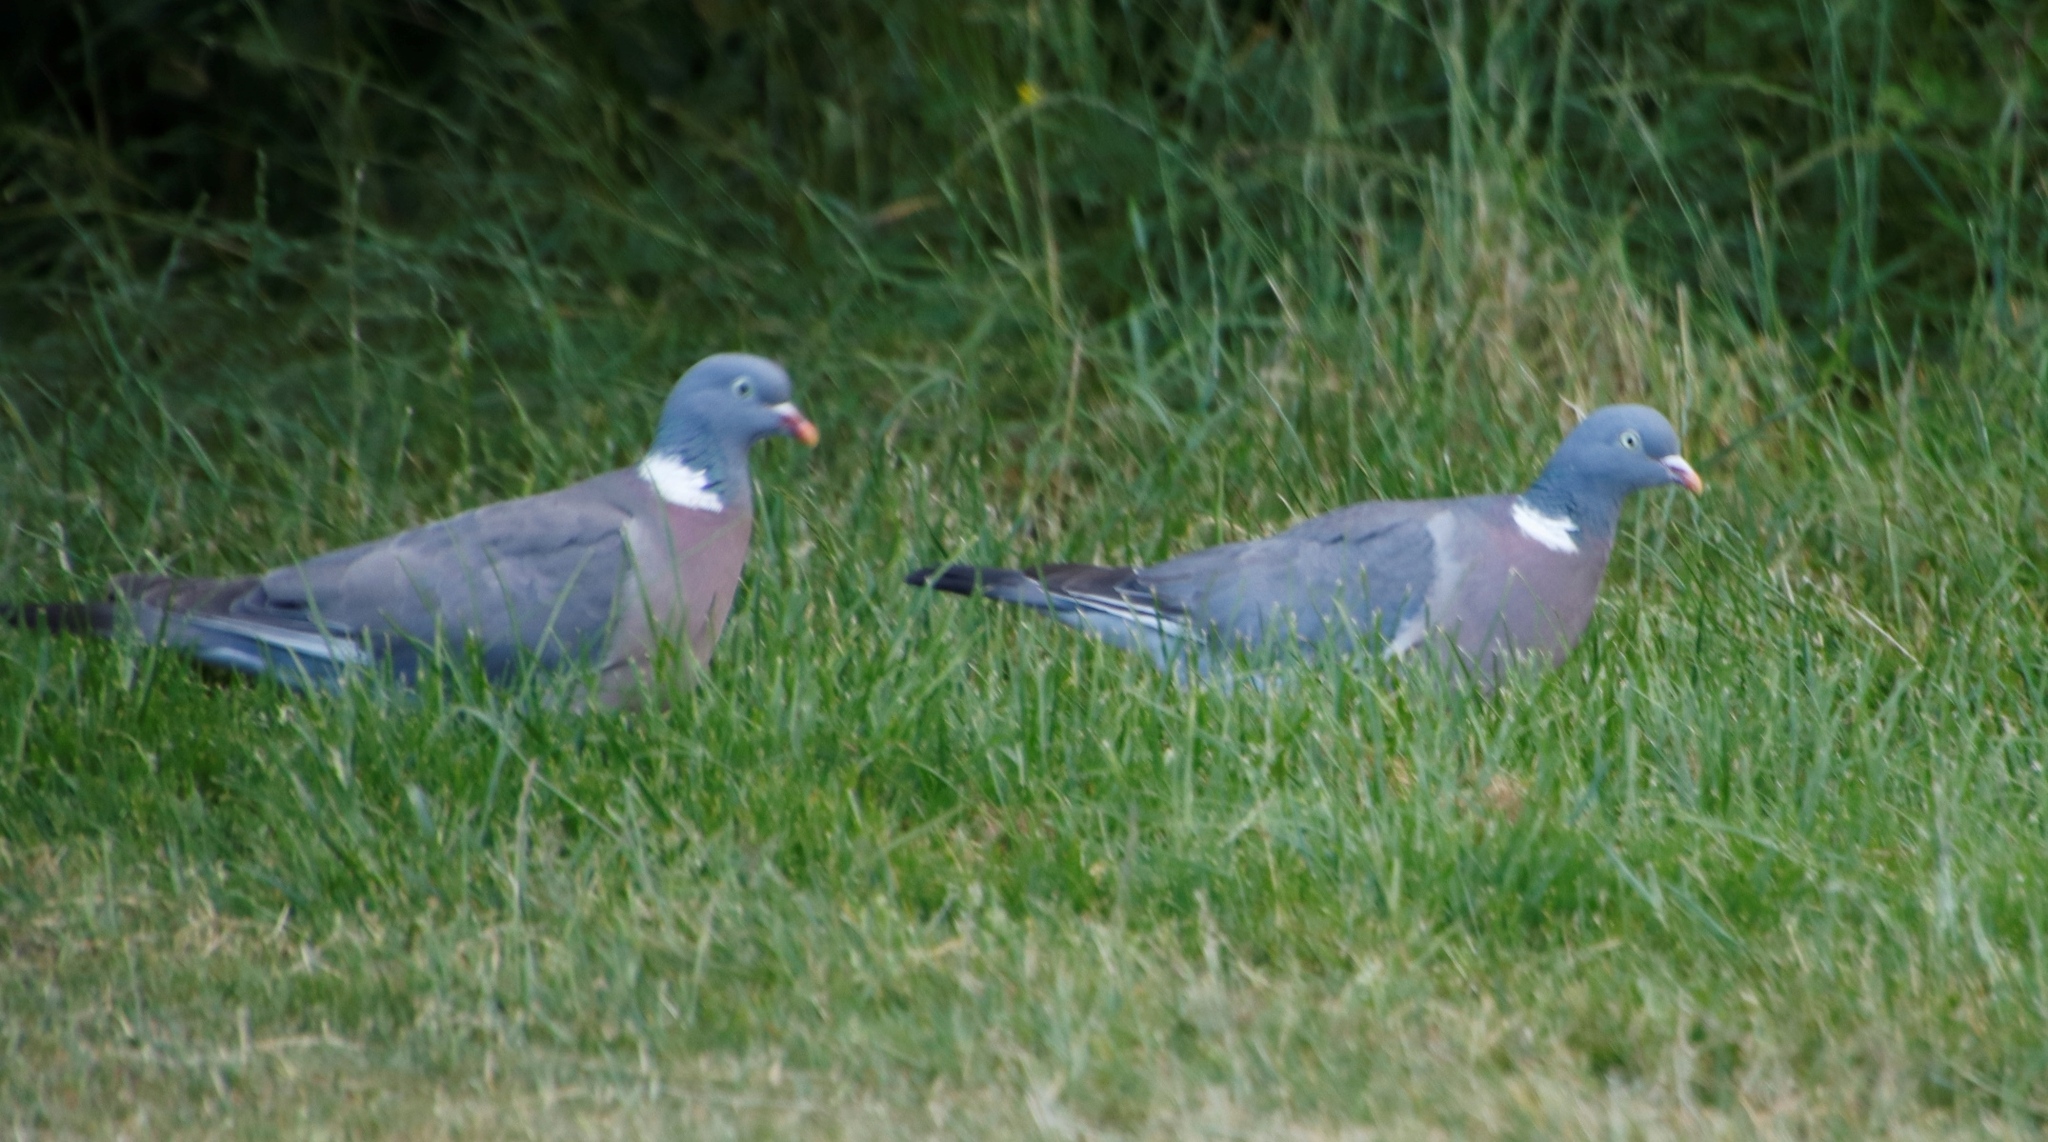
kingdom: Animalia
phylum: Chordata
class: Aves
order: Columbiformes
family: Columbidae
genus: Columba
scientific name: Columba palumbus
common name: Common wood pigeon
